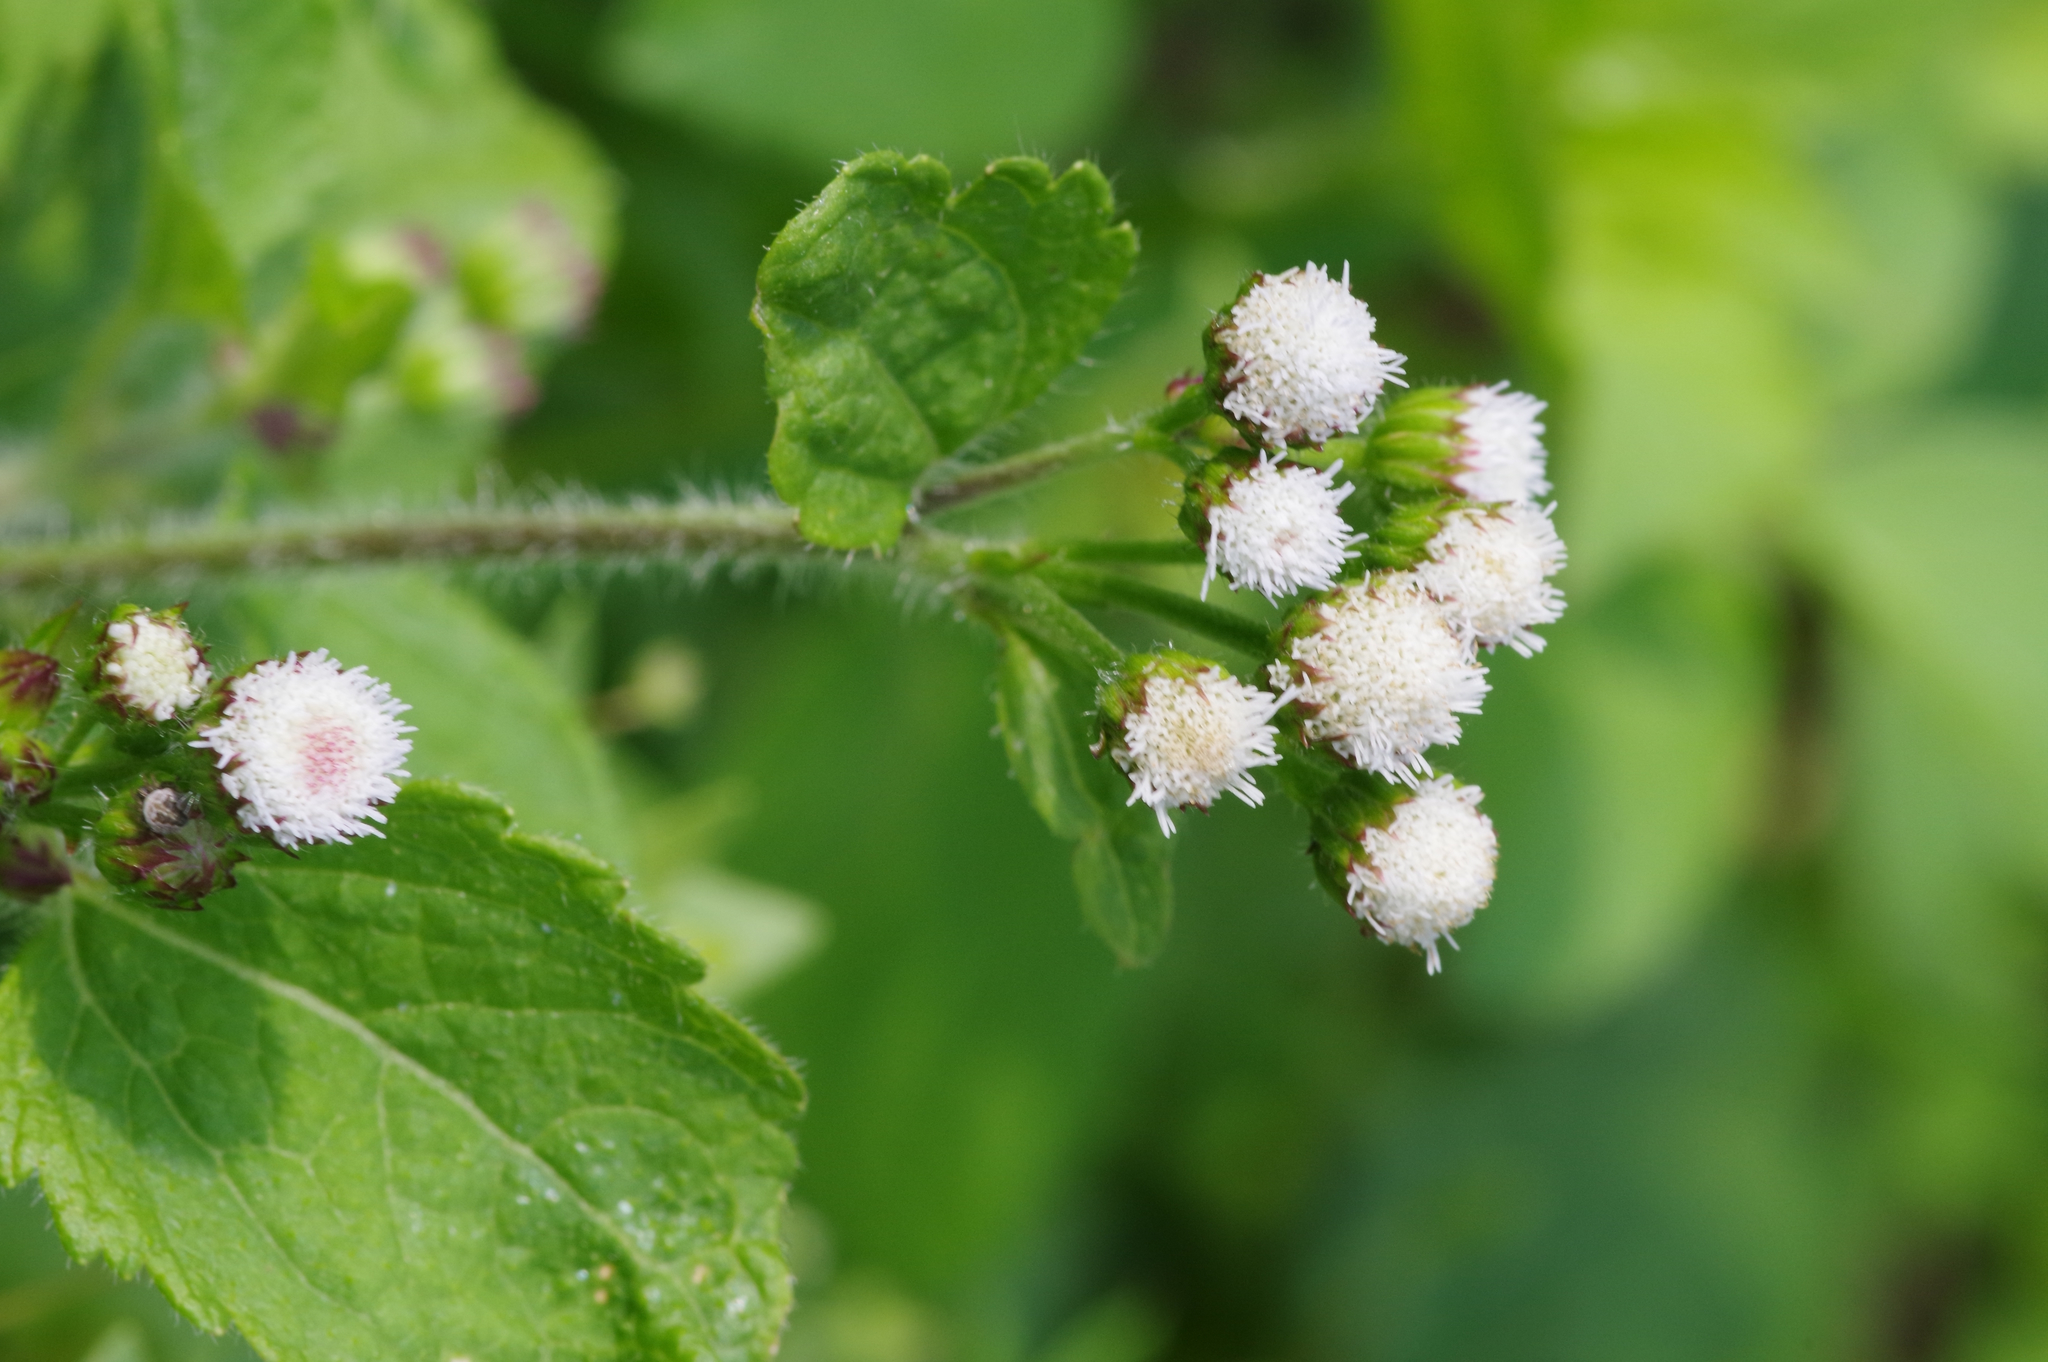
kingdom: Plantae
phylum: Tracheophyta
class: Magnoliopsida
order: Asterales
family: Asteraceae
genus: Ageratum
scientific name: Ageratum conyzoides
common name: Tropical whiteweed
